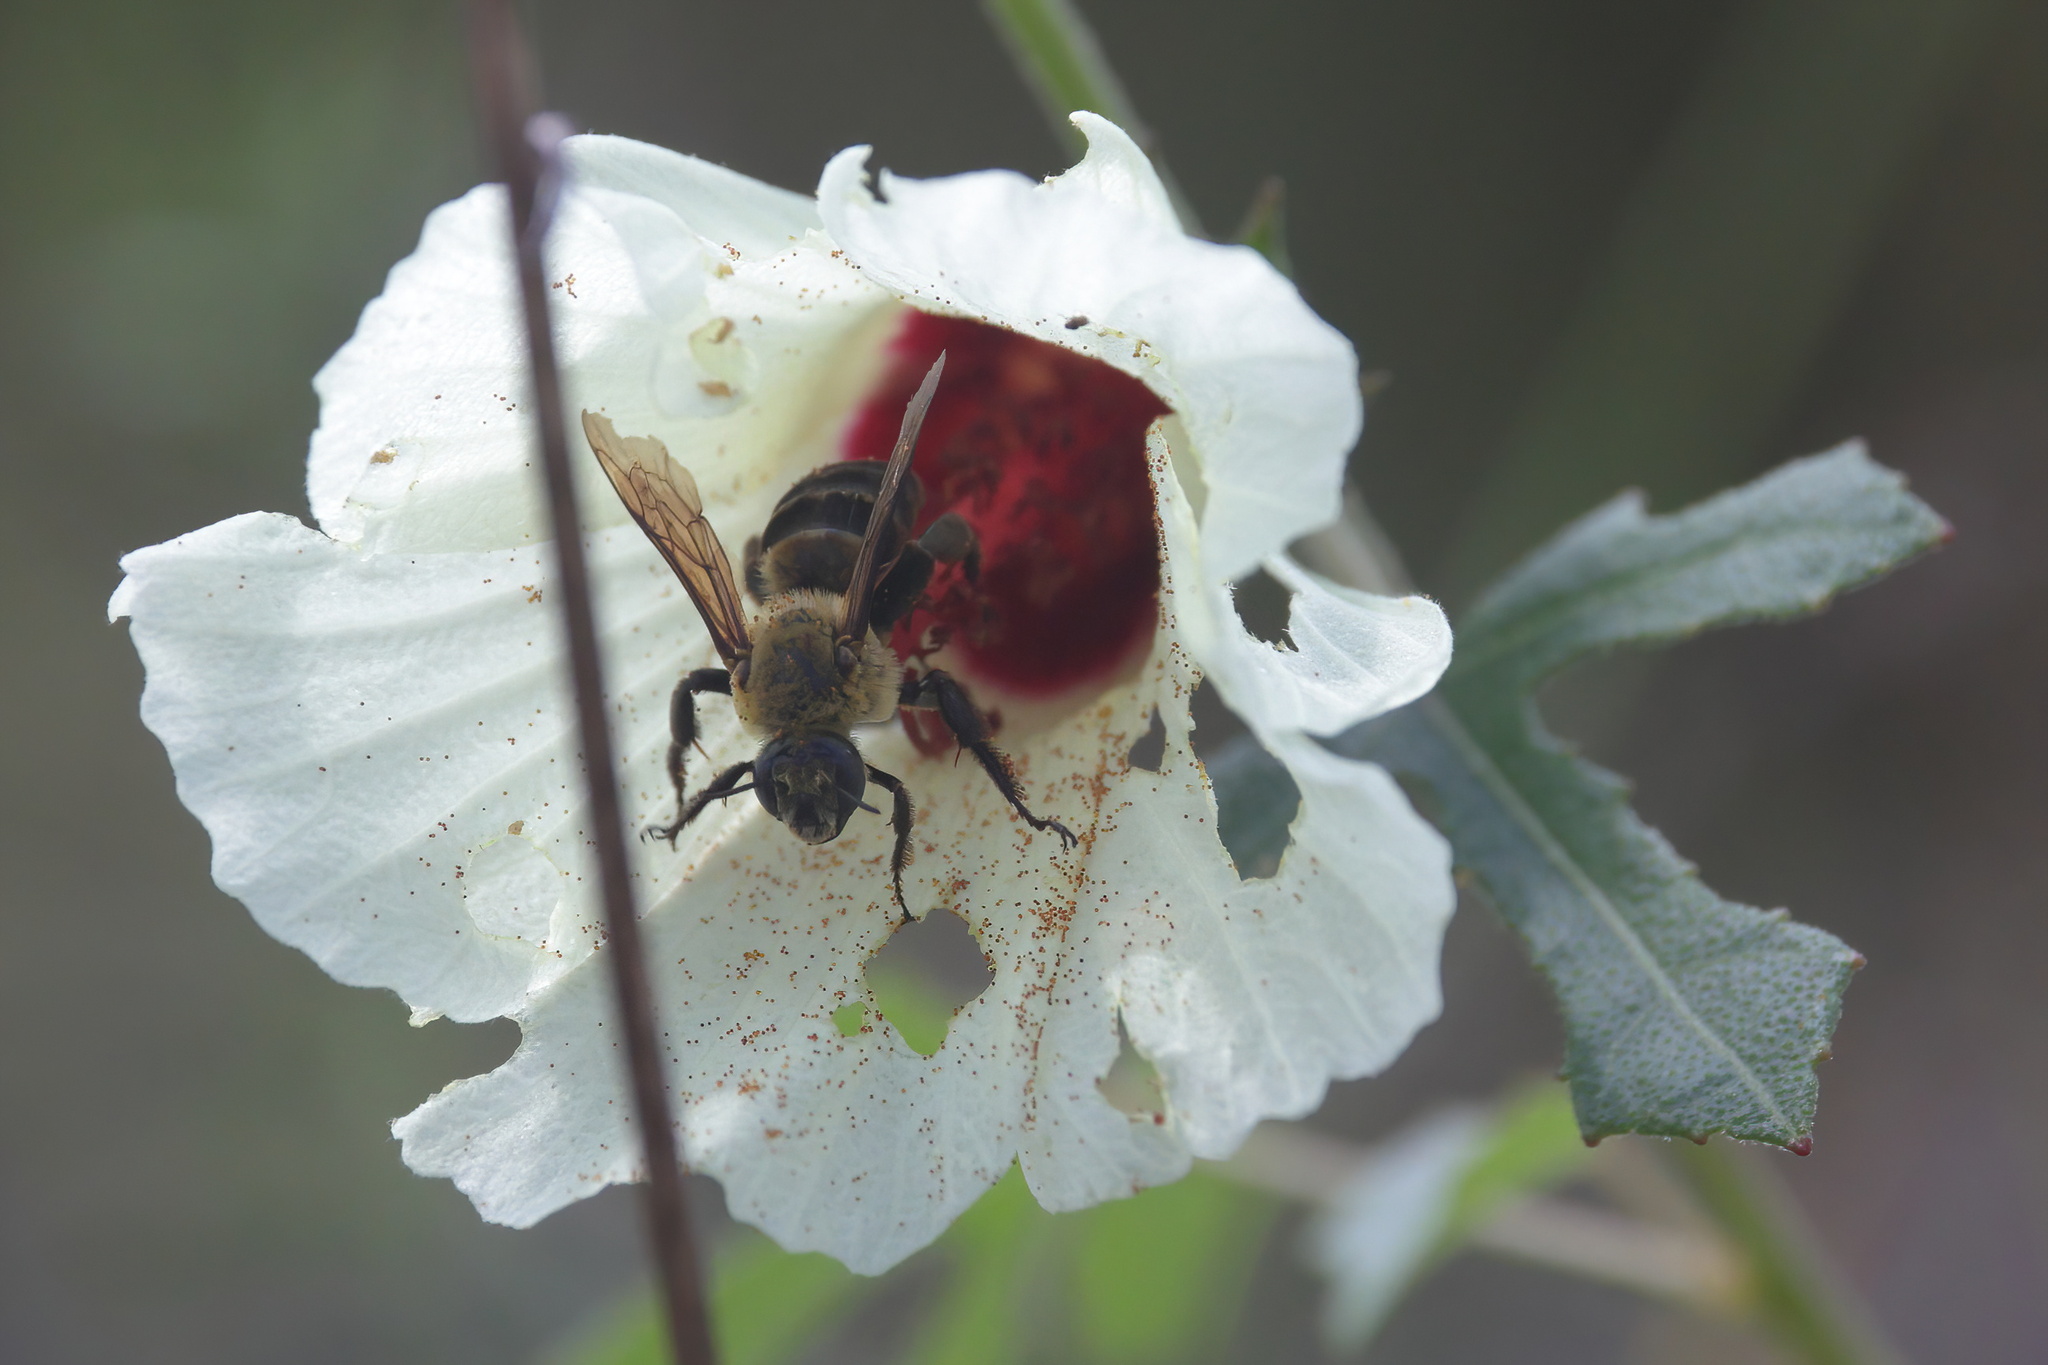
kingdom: Animalia
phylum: Arthropoda
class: Insecta
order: Hymenoptera
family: Apidae
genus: Ptilothrix
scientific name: Ptilothrix bombiformis
